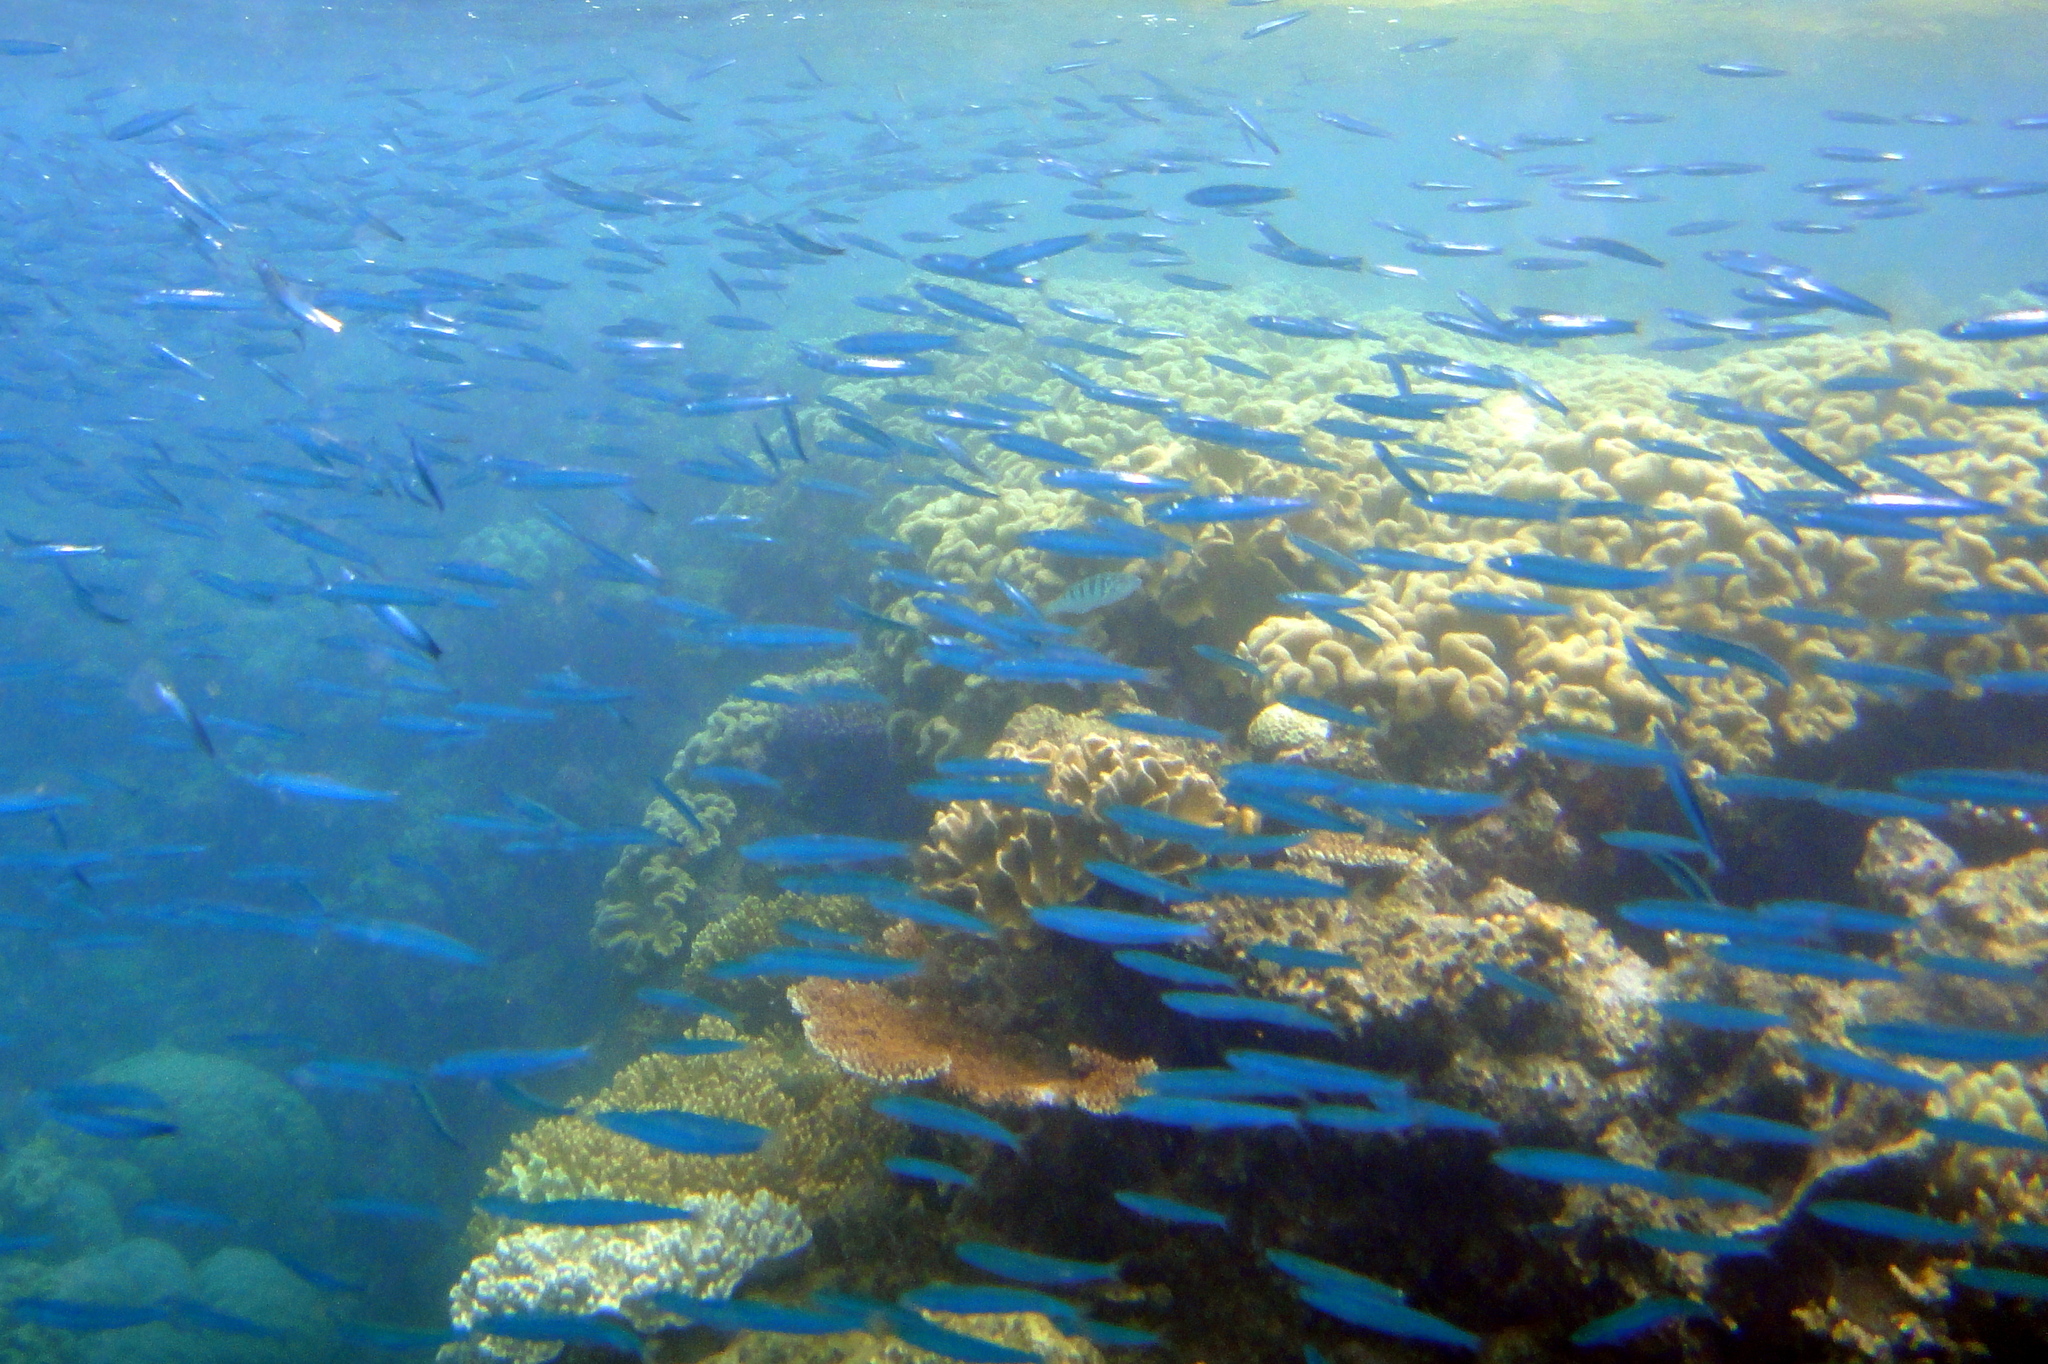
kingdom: Animalia
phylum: Chordata
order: Perciformes
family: Caesionidae
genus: Caesio
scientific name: Caesio caerulaurea
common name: Blue and gold fusilier
